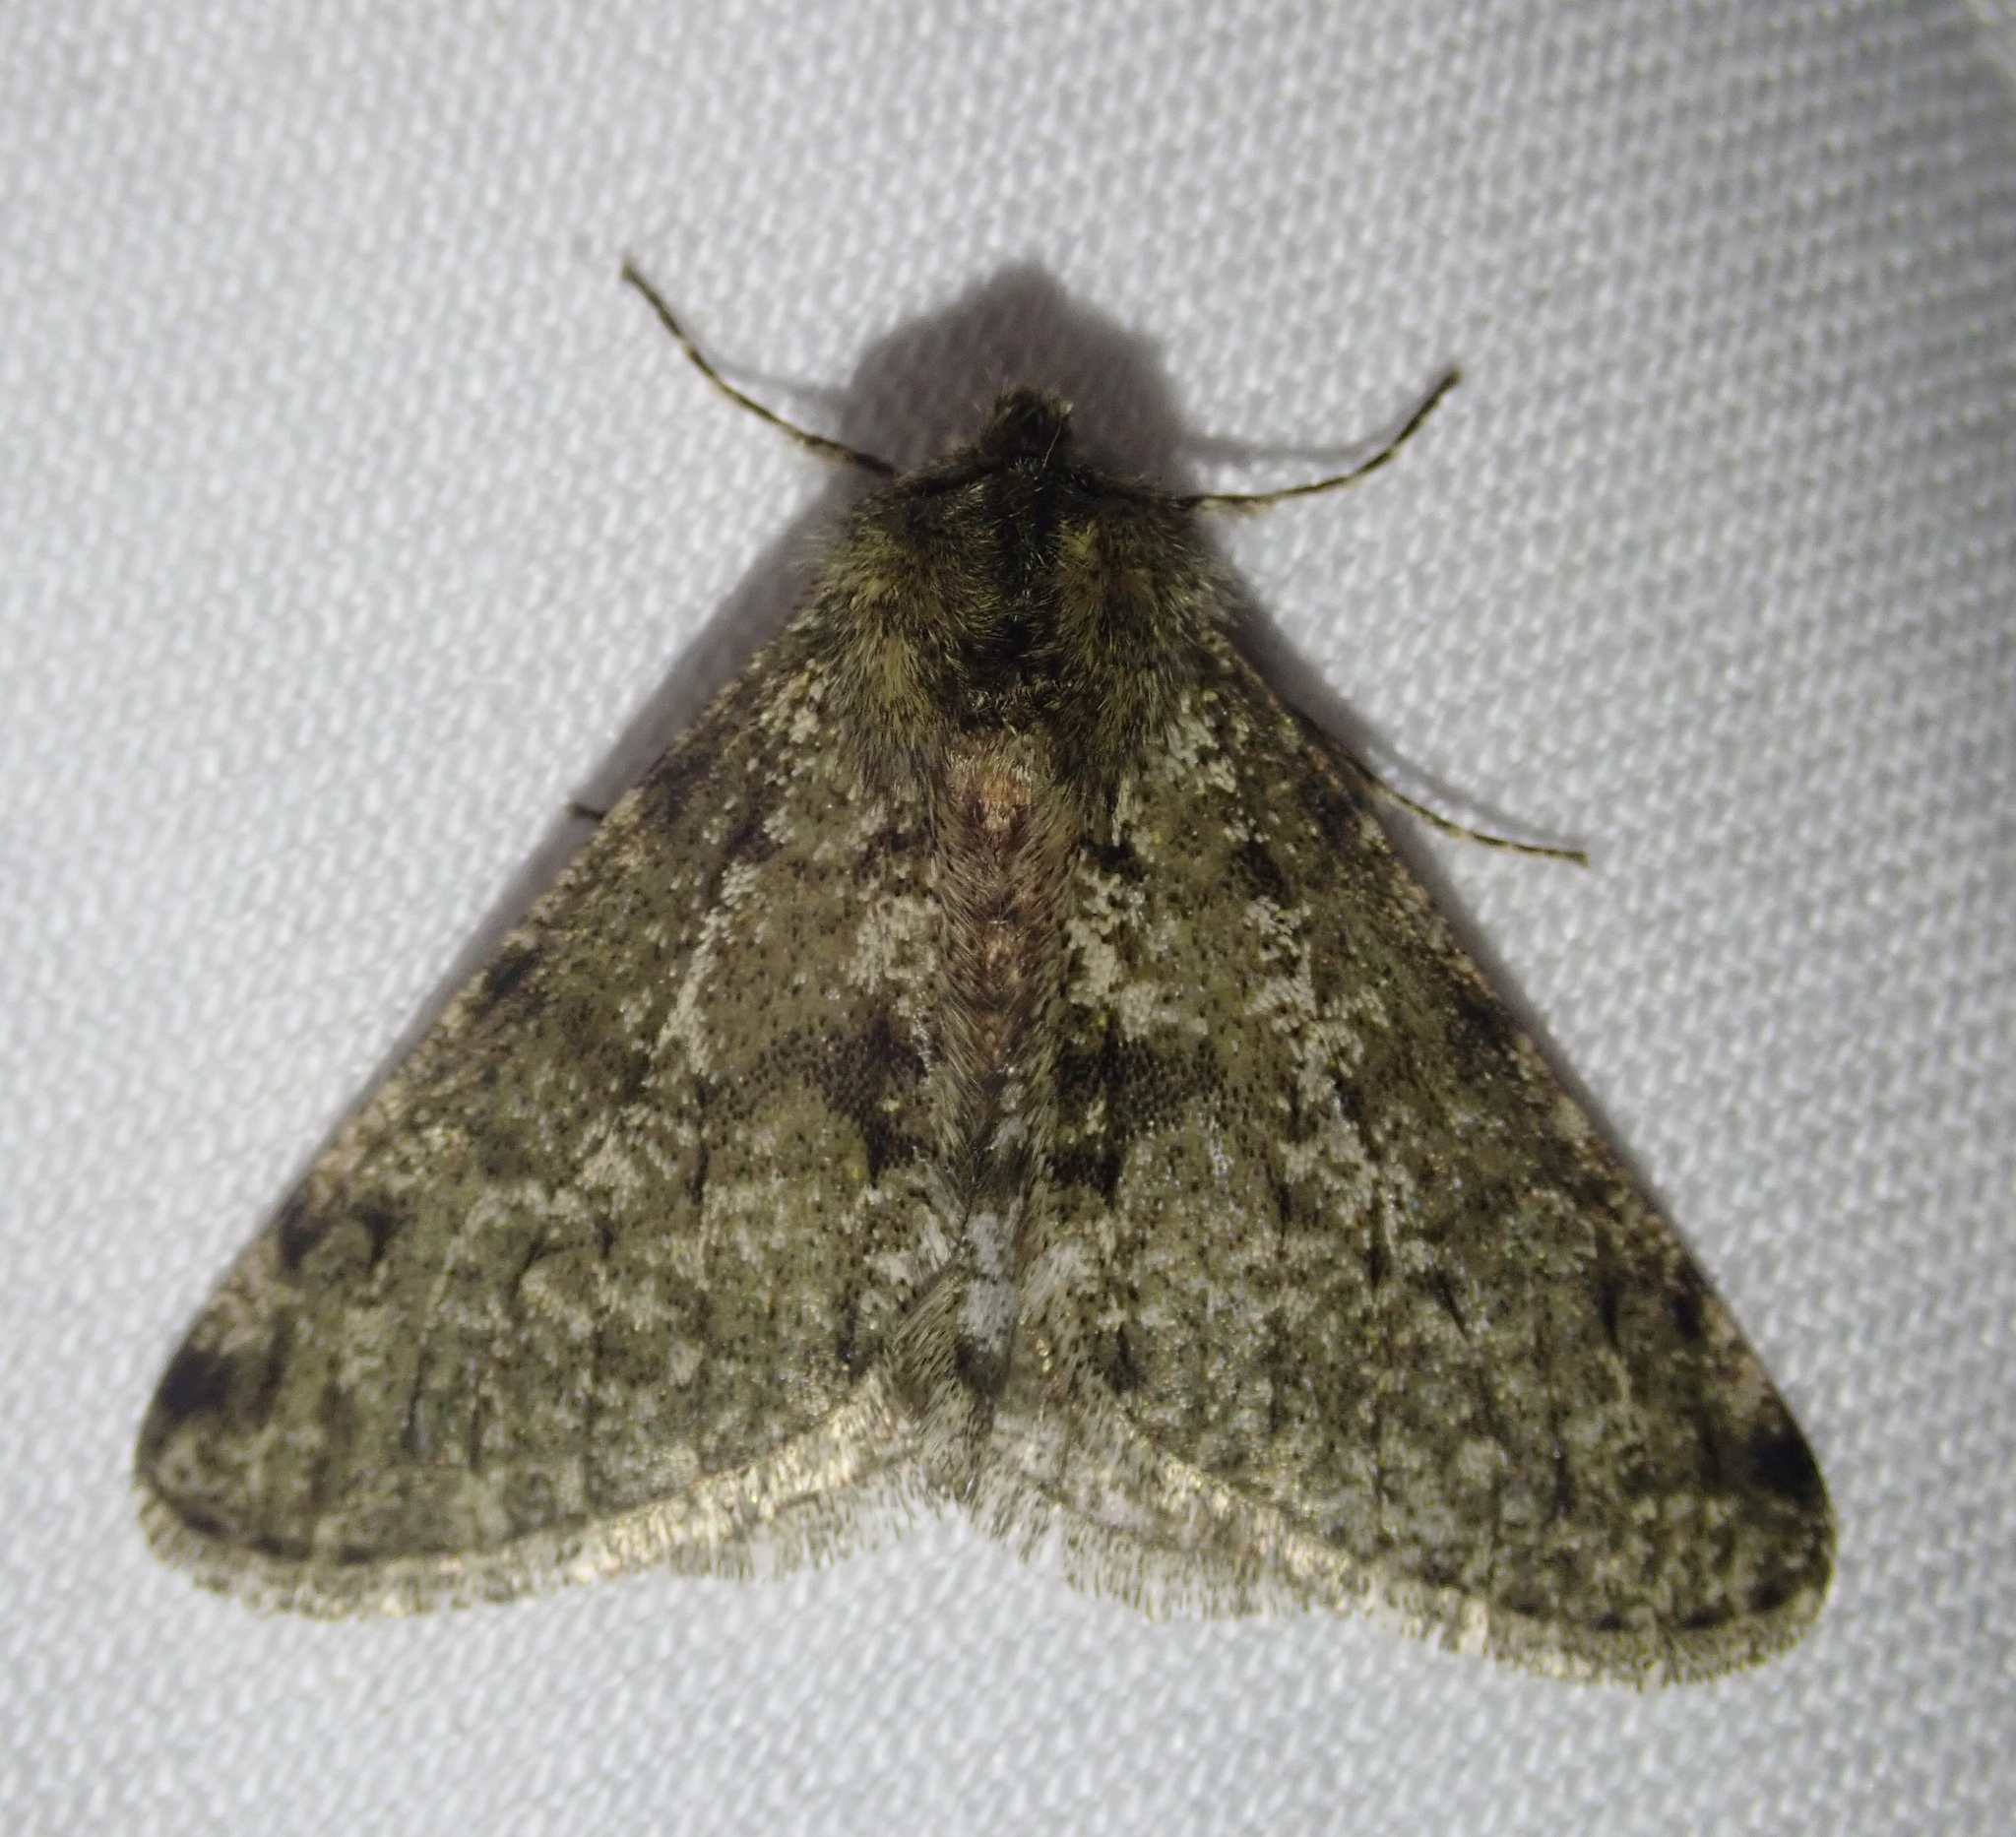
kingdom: Animalia
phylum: Arthropoda
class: Insecta
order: Lepidoptera
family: Geometridae
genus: Phigalia
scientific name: Phigalia pilosaria
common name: Pale brindled beauty
